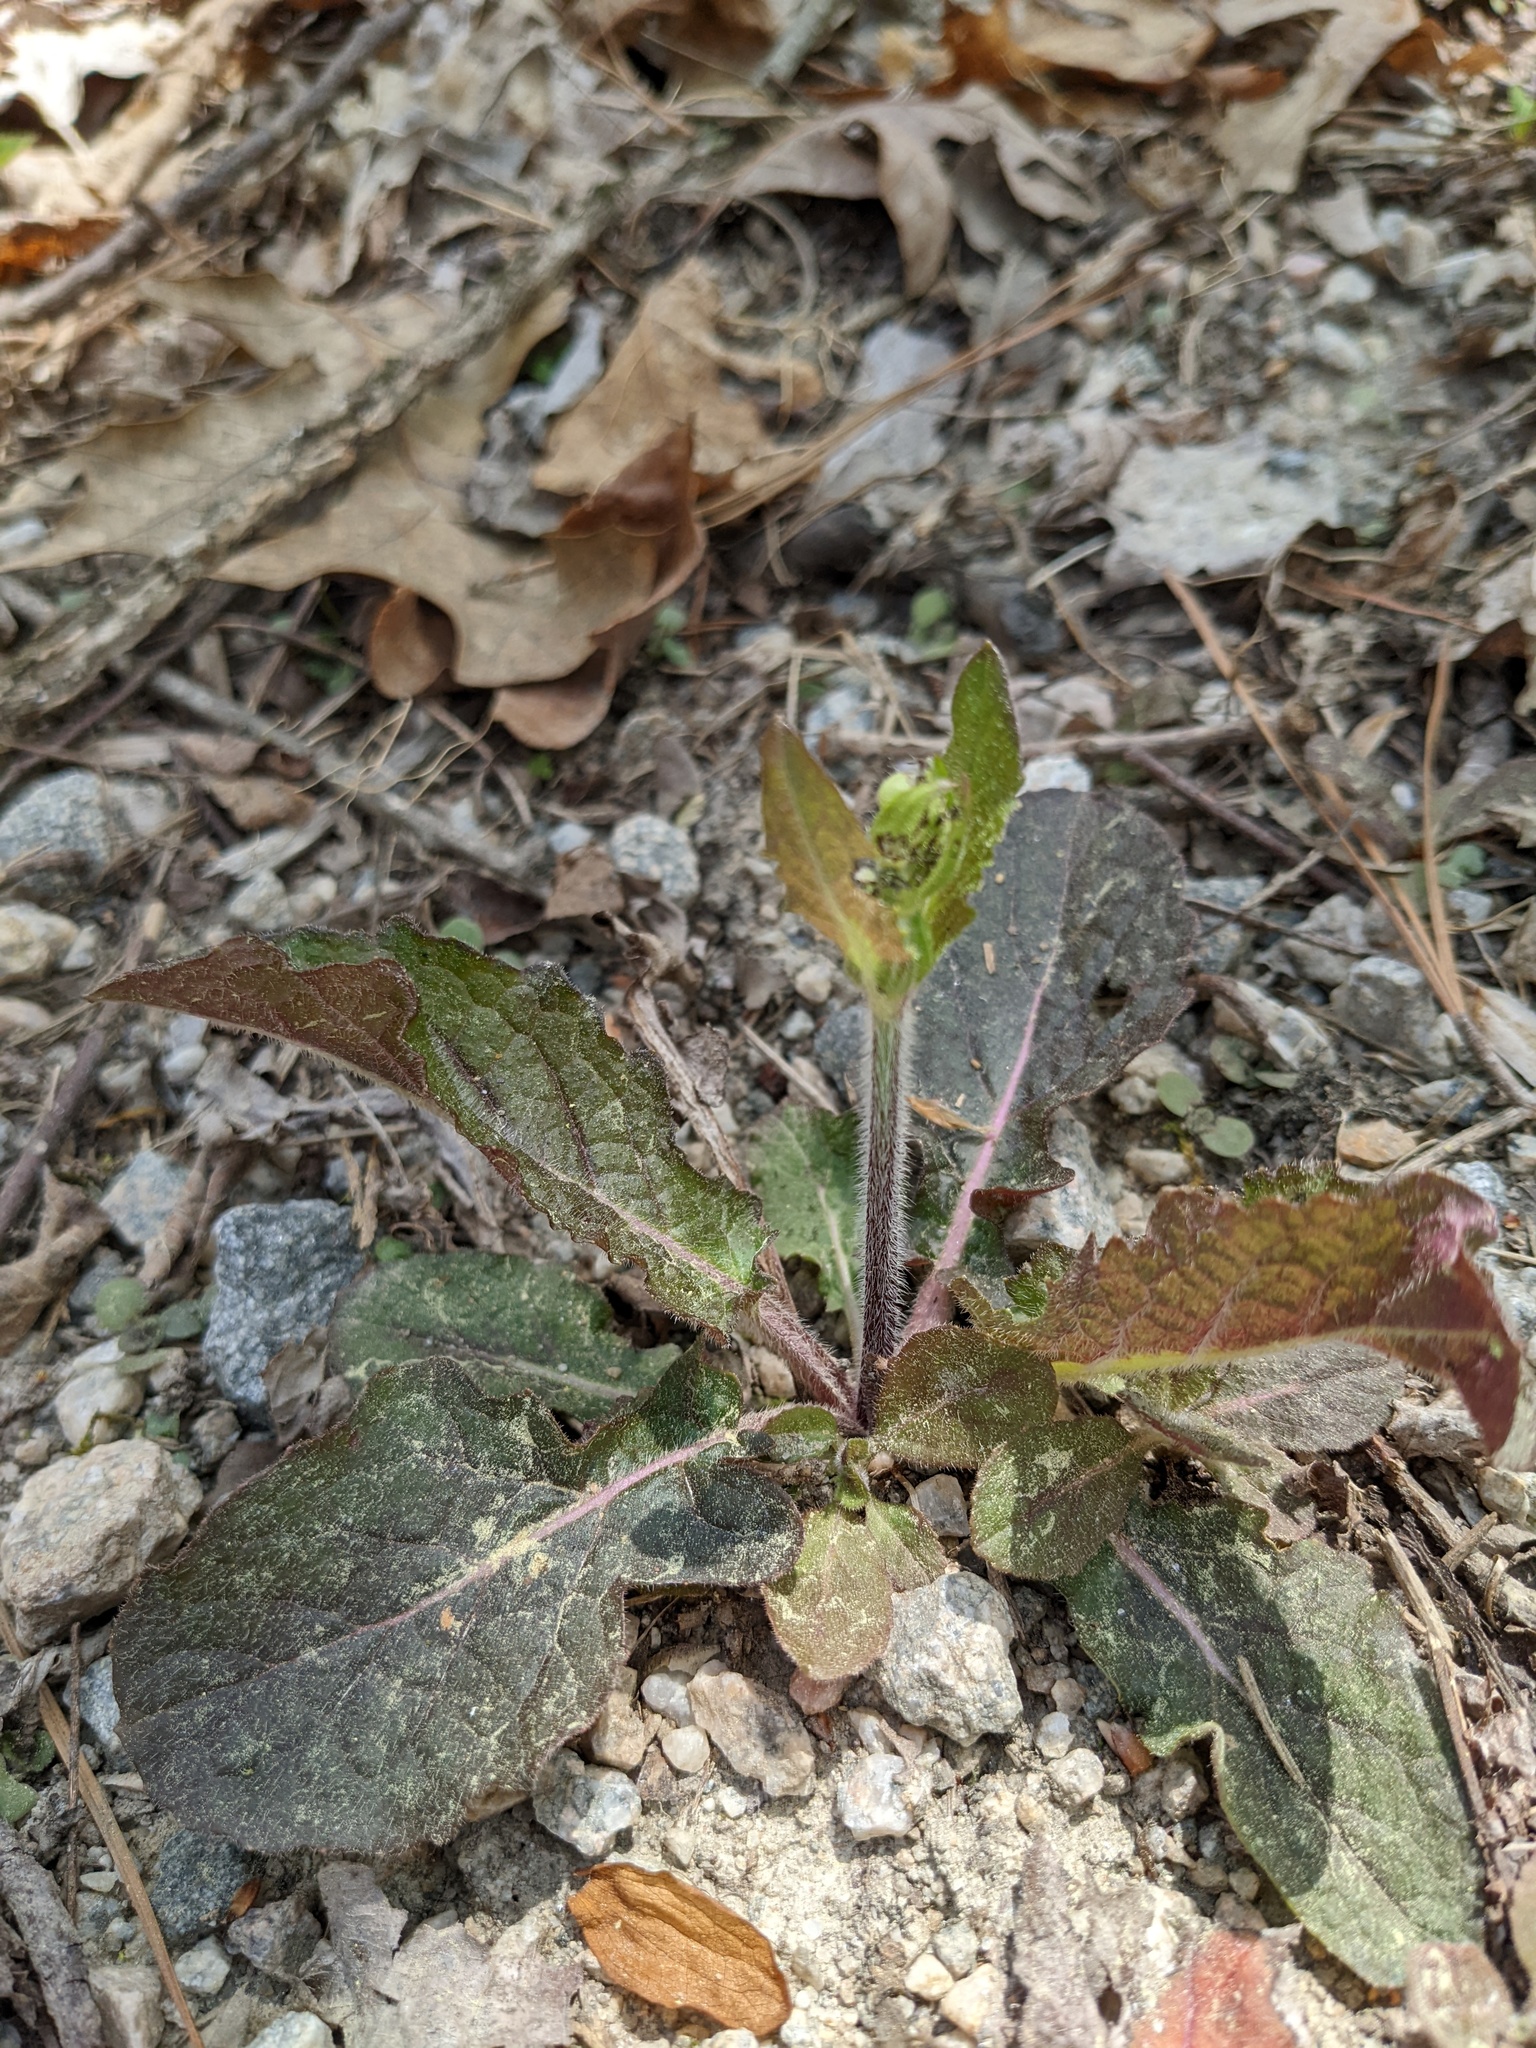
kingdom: Plantae
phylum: Tracheophyta
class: Magnoliopsida
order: Lamiales
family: Lamiaceae
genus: Salvia
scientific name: Salvia lyrata
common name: Cancerweed
